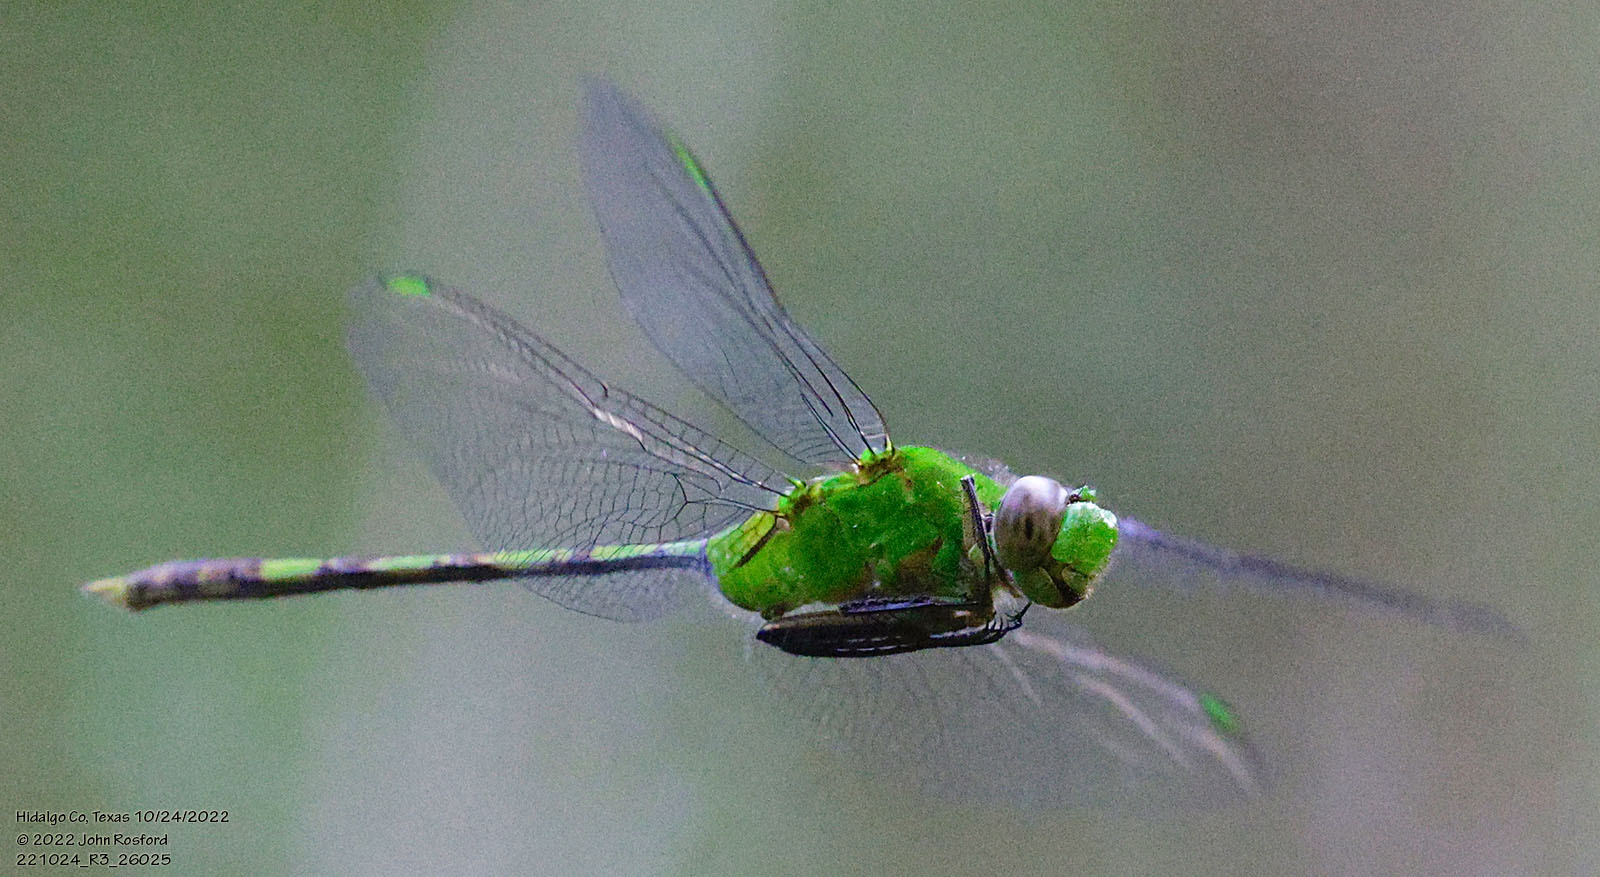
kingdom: Animalia
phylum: Arthropoda
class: Insecta
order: Odonata
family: Libellulidae
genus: Erythemis
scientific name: Erythemis vesiculosa
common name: Great pondhawk
